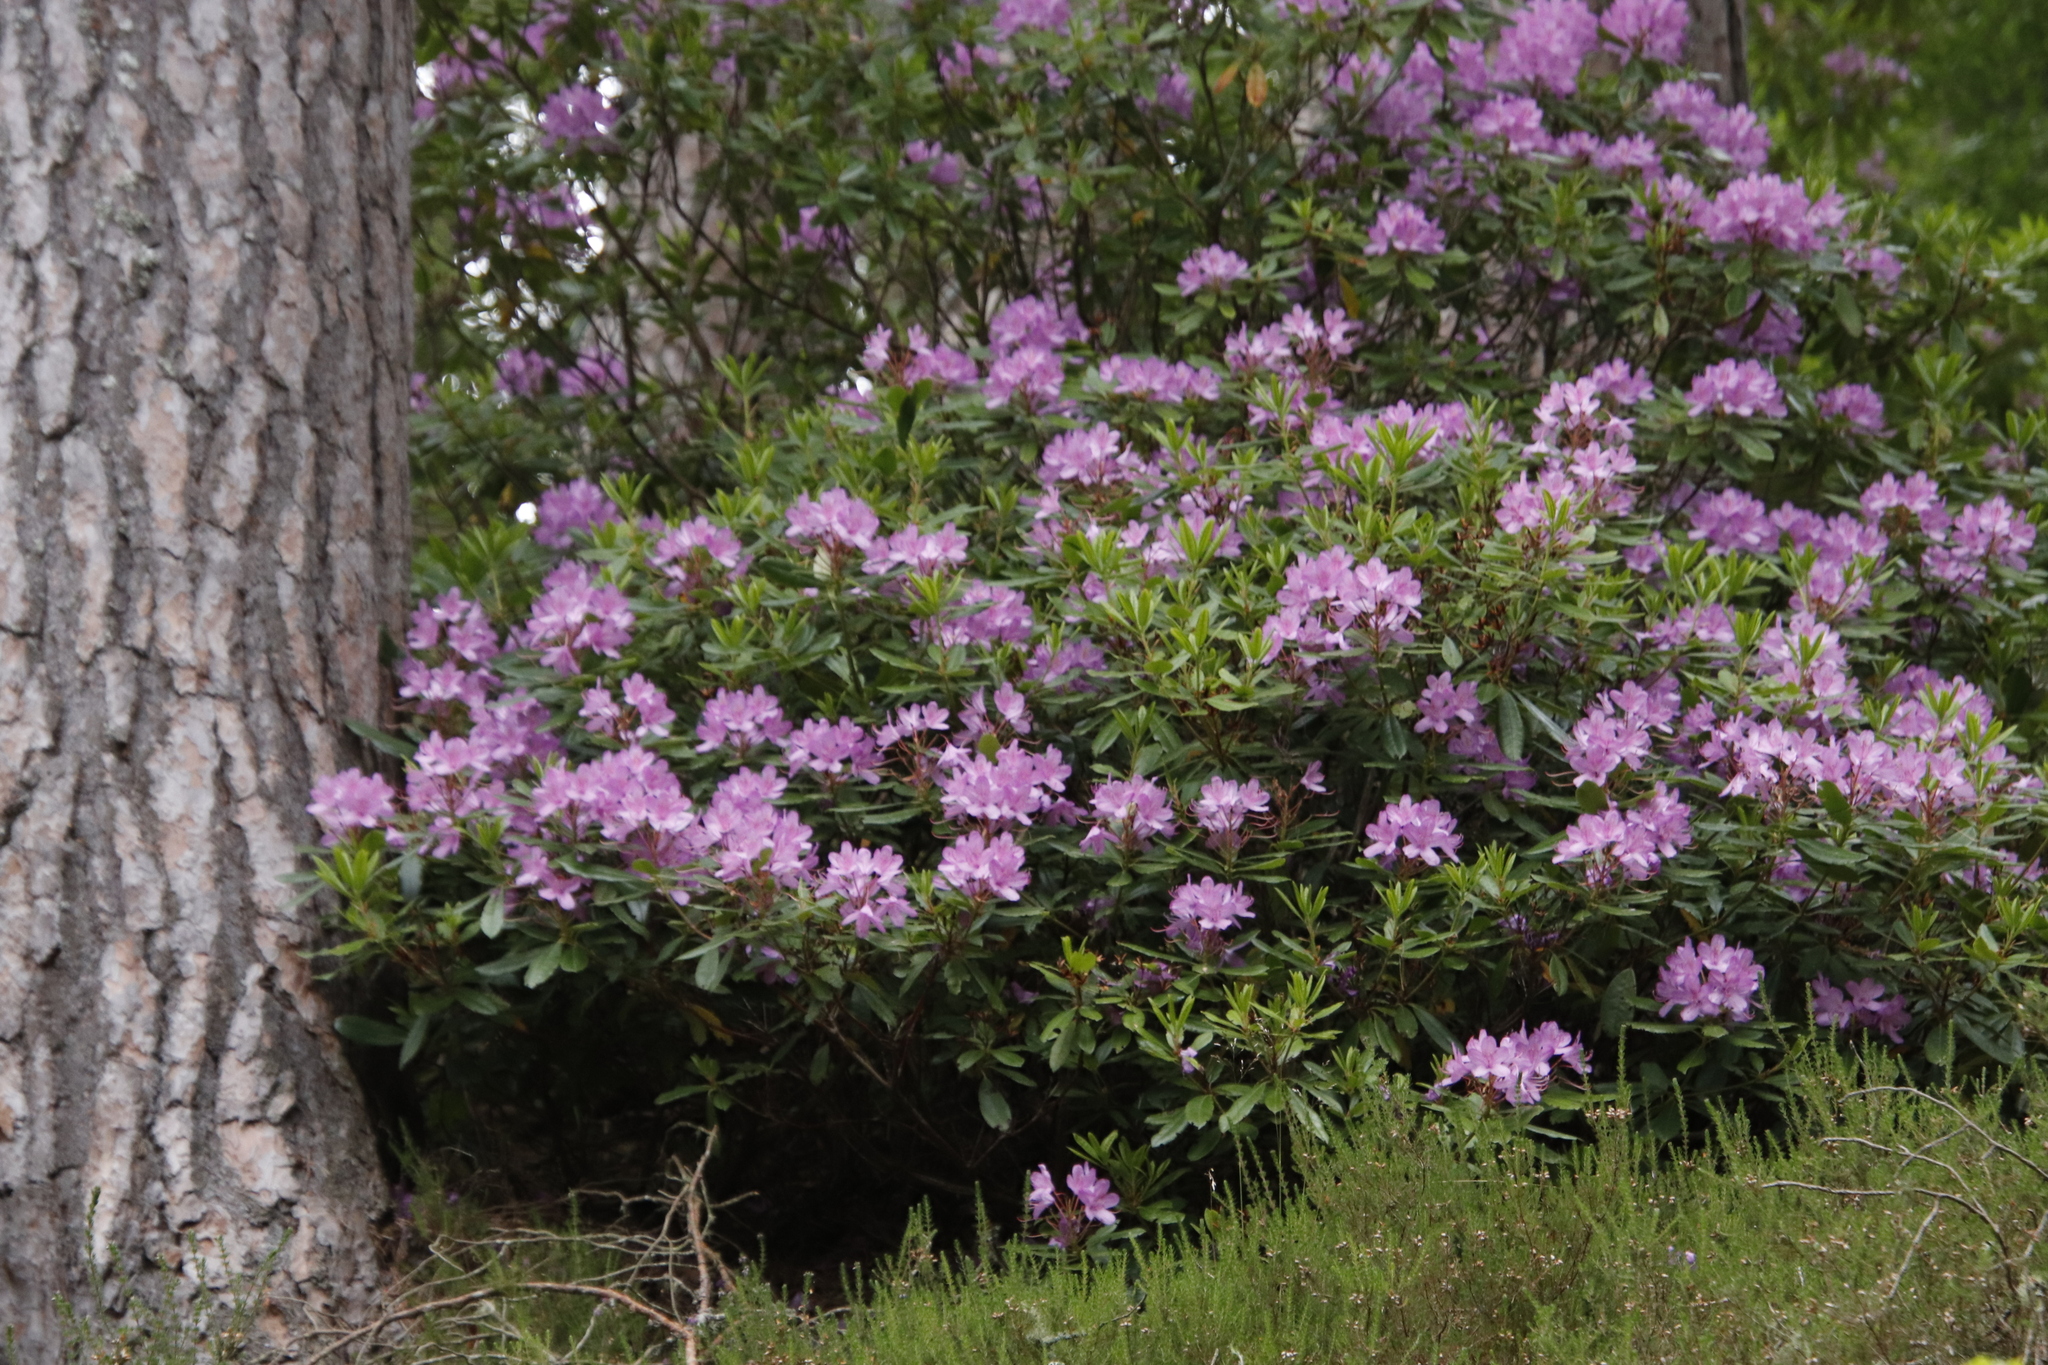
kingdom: Plantae
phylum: Tracheophyta
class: Magnoliopsida
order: Ericales
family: Ericaceae
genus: Rhododendron
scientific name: Rhododendron ponticum
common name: Rhododendron
